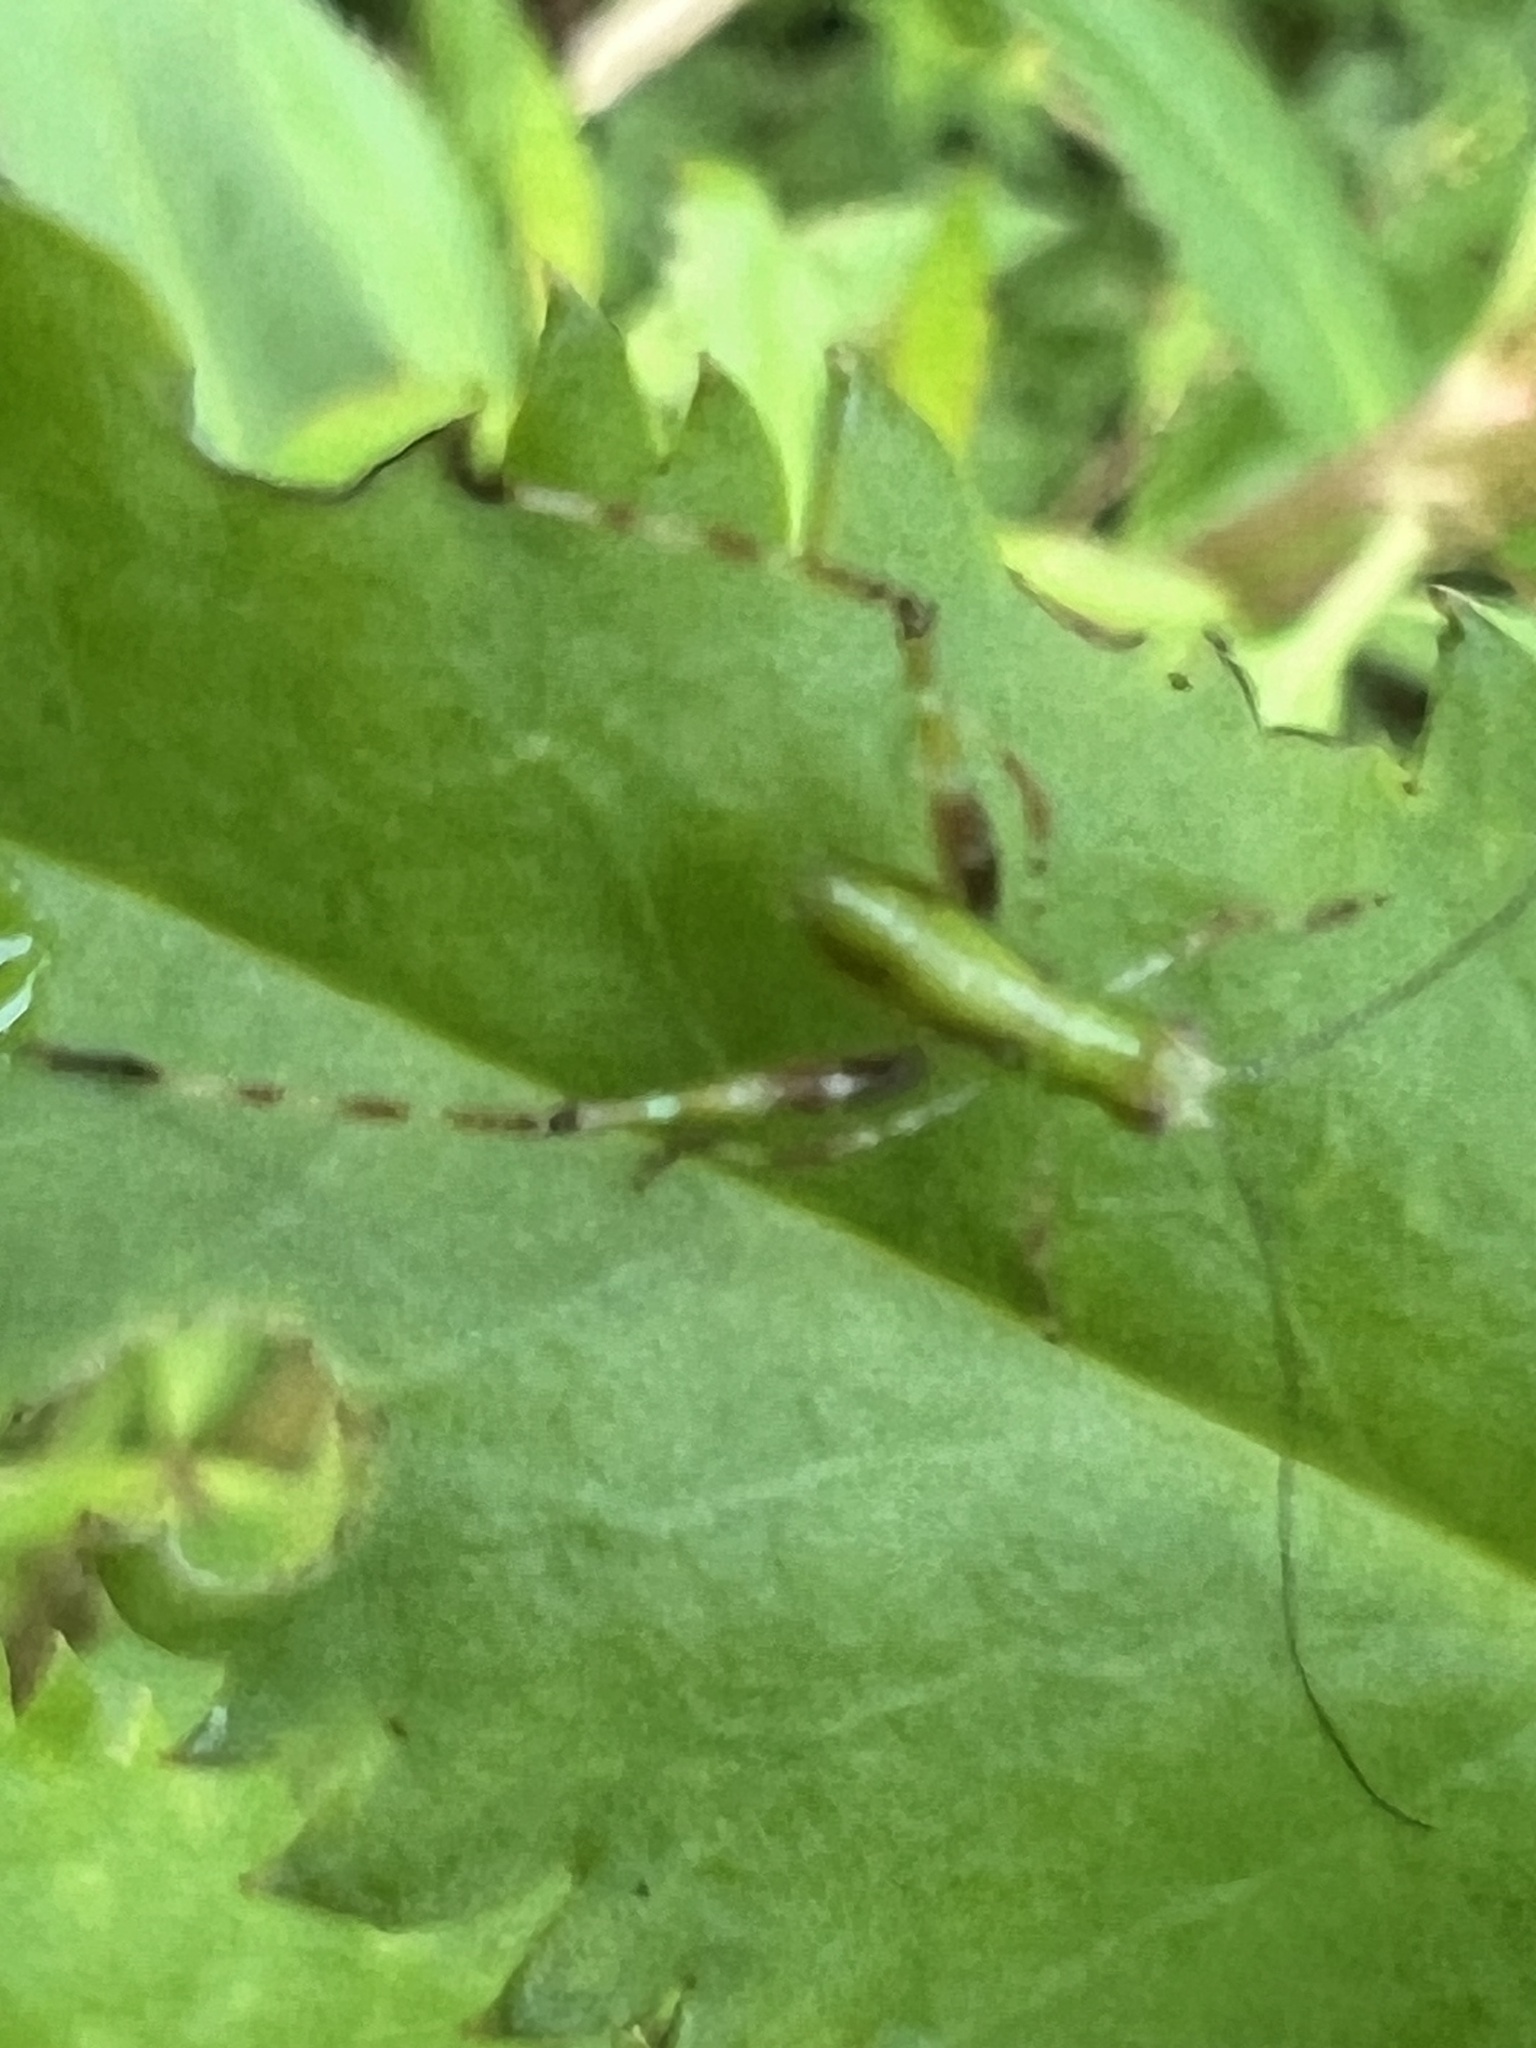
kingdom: Animalia
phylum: Arthropoda
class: Insecta
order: Orthoptera
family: Tettigoniidae
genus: Caedicia
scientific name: Caedicia simplex
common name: Common garden katydid
